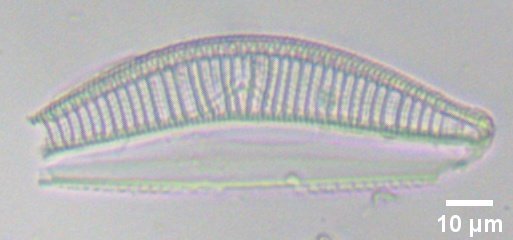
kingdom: Chromista
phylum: Ochrophyta
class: Bacillariophyceae
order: Naviculales
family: Naviculaceae
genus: Navicula
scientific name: Navicula turgida
